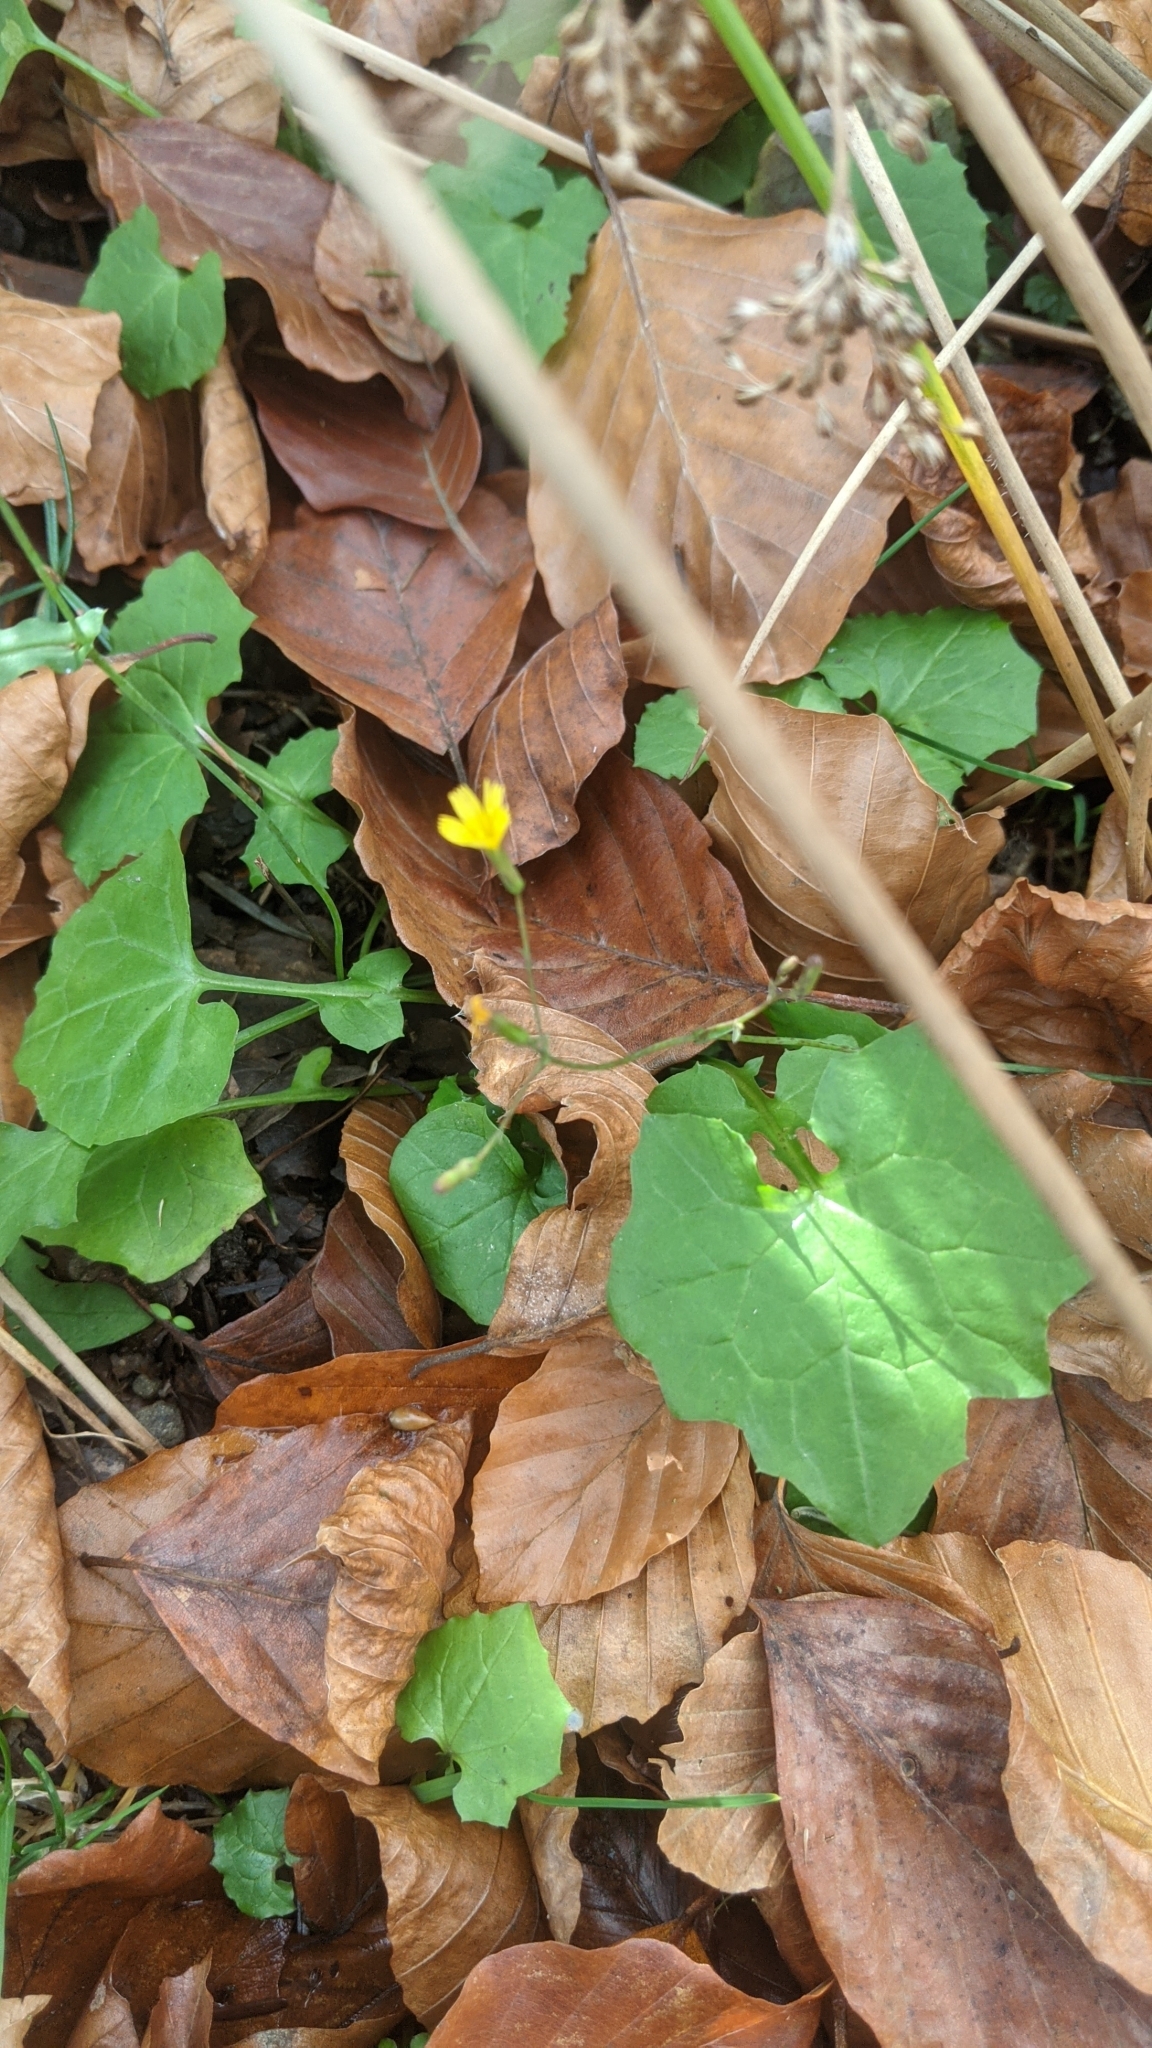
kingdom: Plantae
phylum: Tracheophyta
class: Magnoliopsida
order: Asterales
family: Asteraceae
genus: Mycelis
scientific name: Mycelis muralis
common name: Wall lettuce
